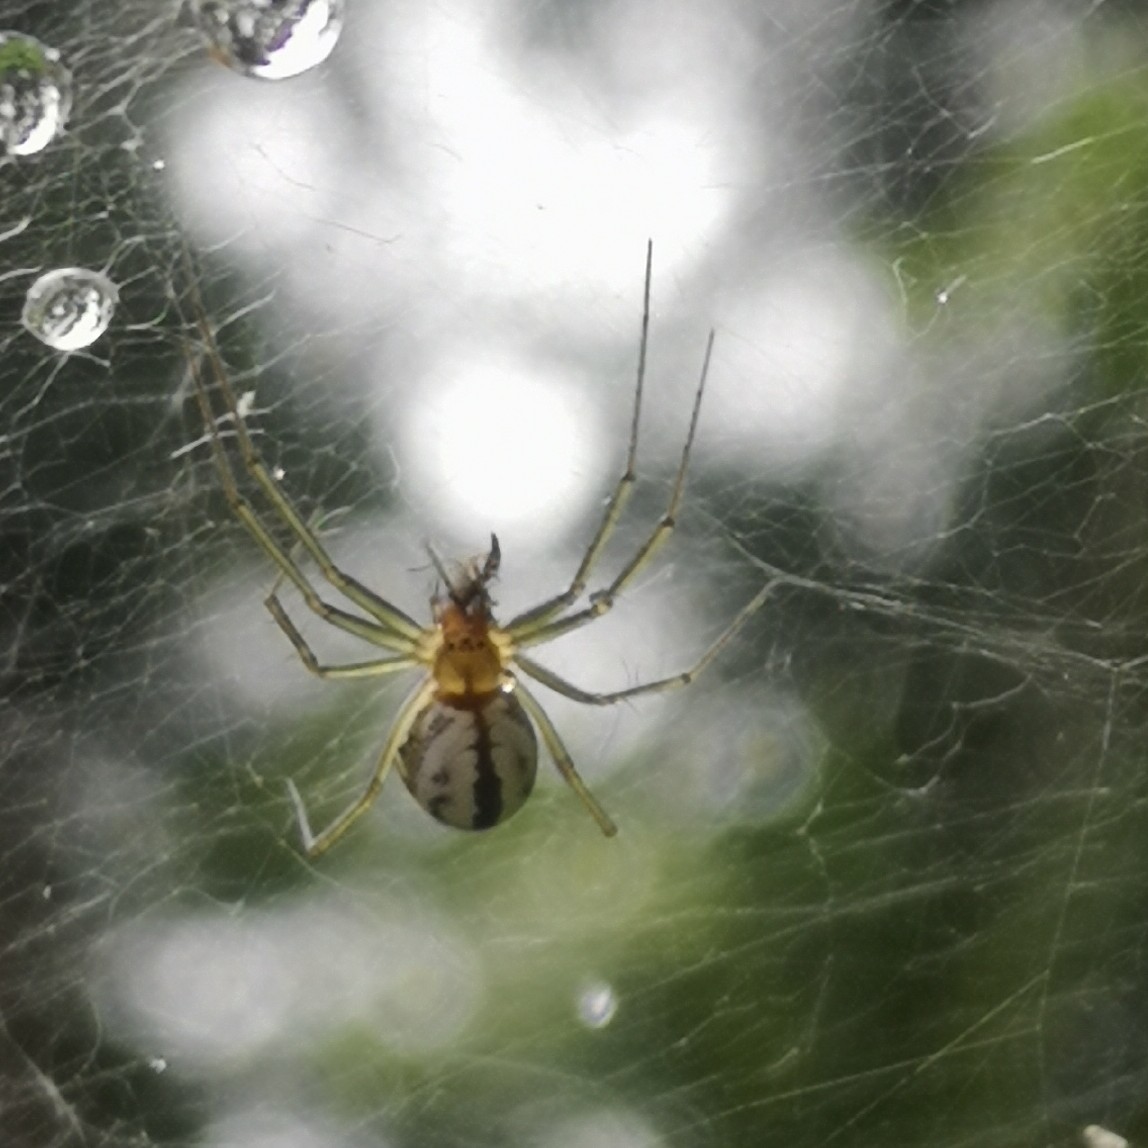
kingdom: Animalia
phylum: Arthropoda
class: Arachnida
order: Araneae
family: Linyphiidae
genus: Neriene
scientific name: Neriene emphana
